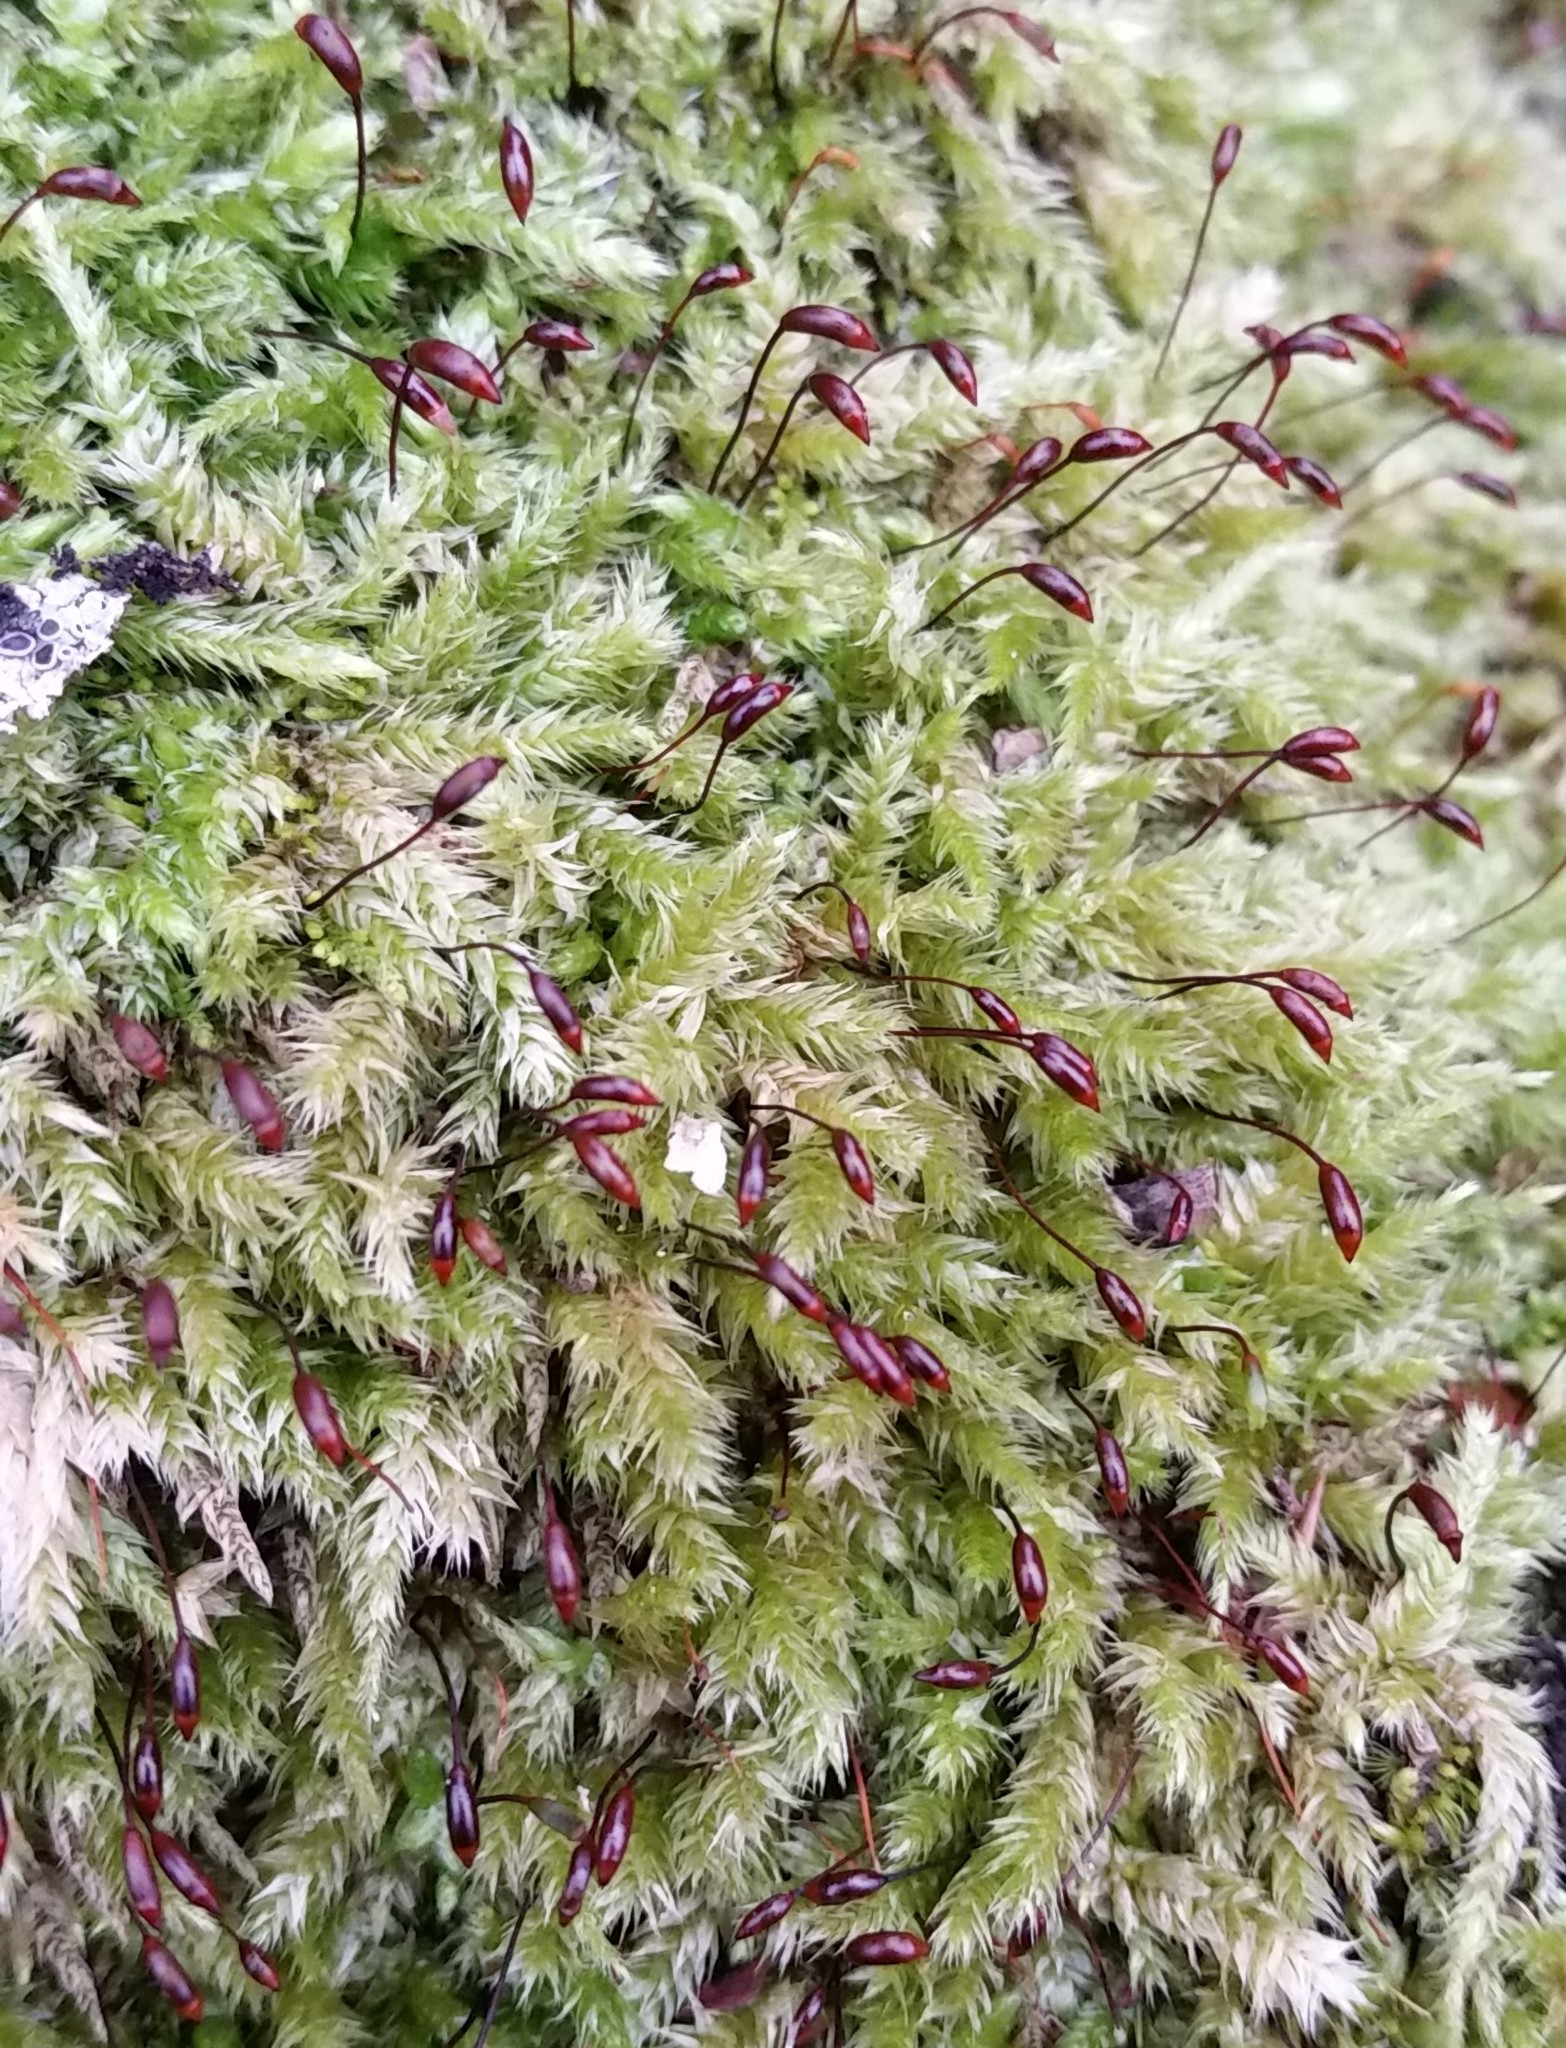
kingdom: Plantae
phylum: Bryophyta
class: Bryopsida
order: Hypnales
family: Brachytheciaceae
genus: Brachythecium
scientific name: Brachythecium rutabulum
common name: Rough-stalked feather-moss
